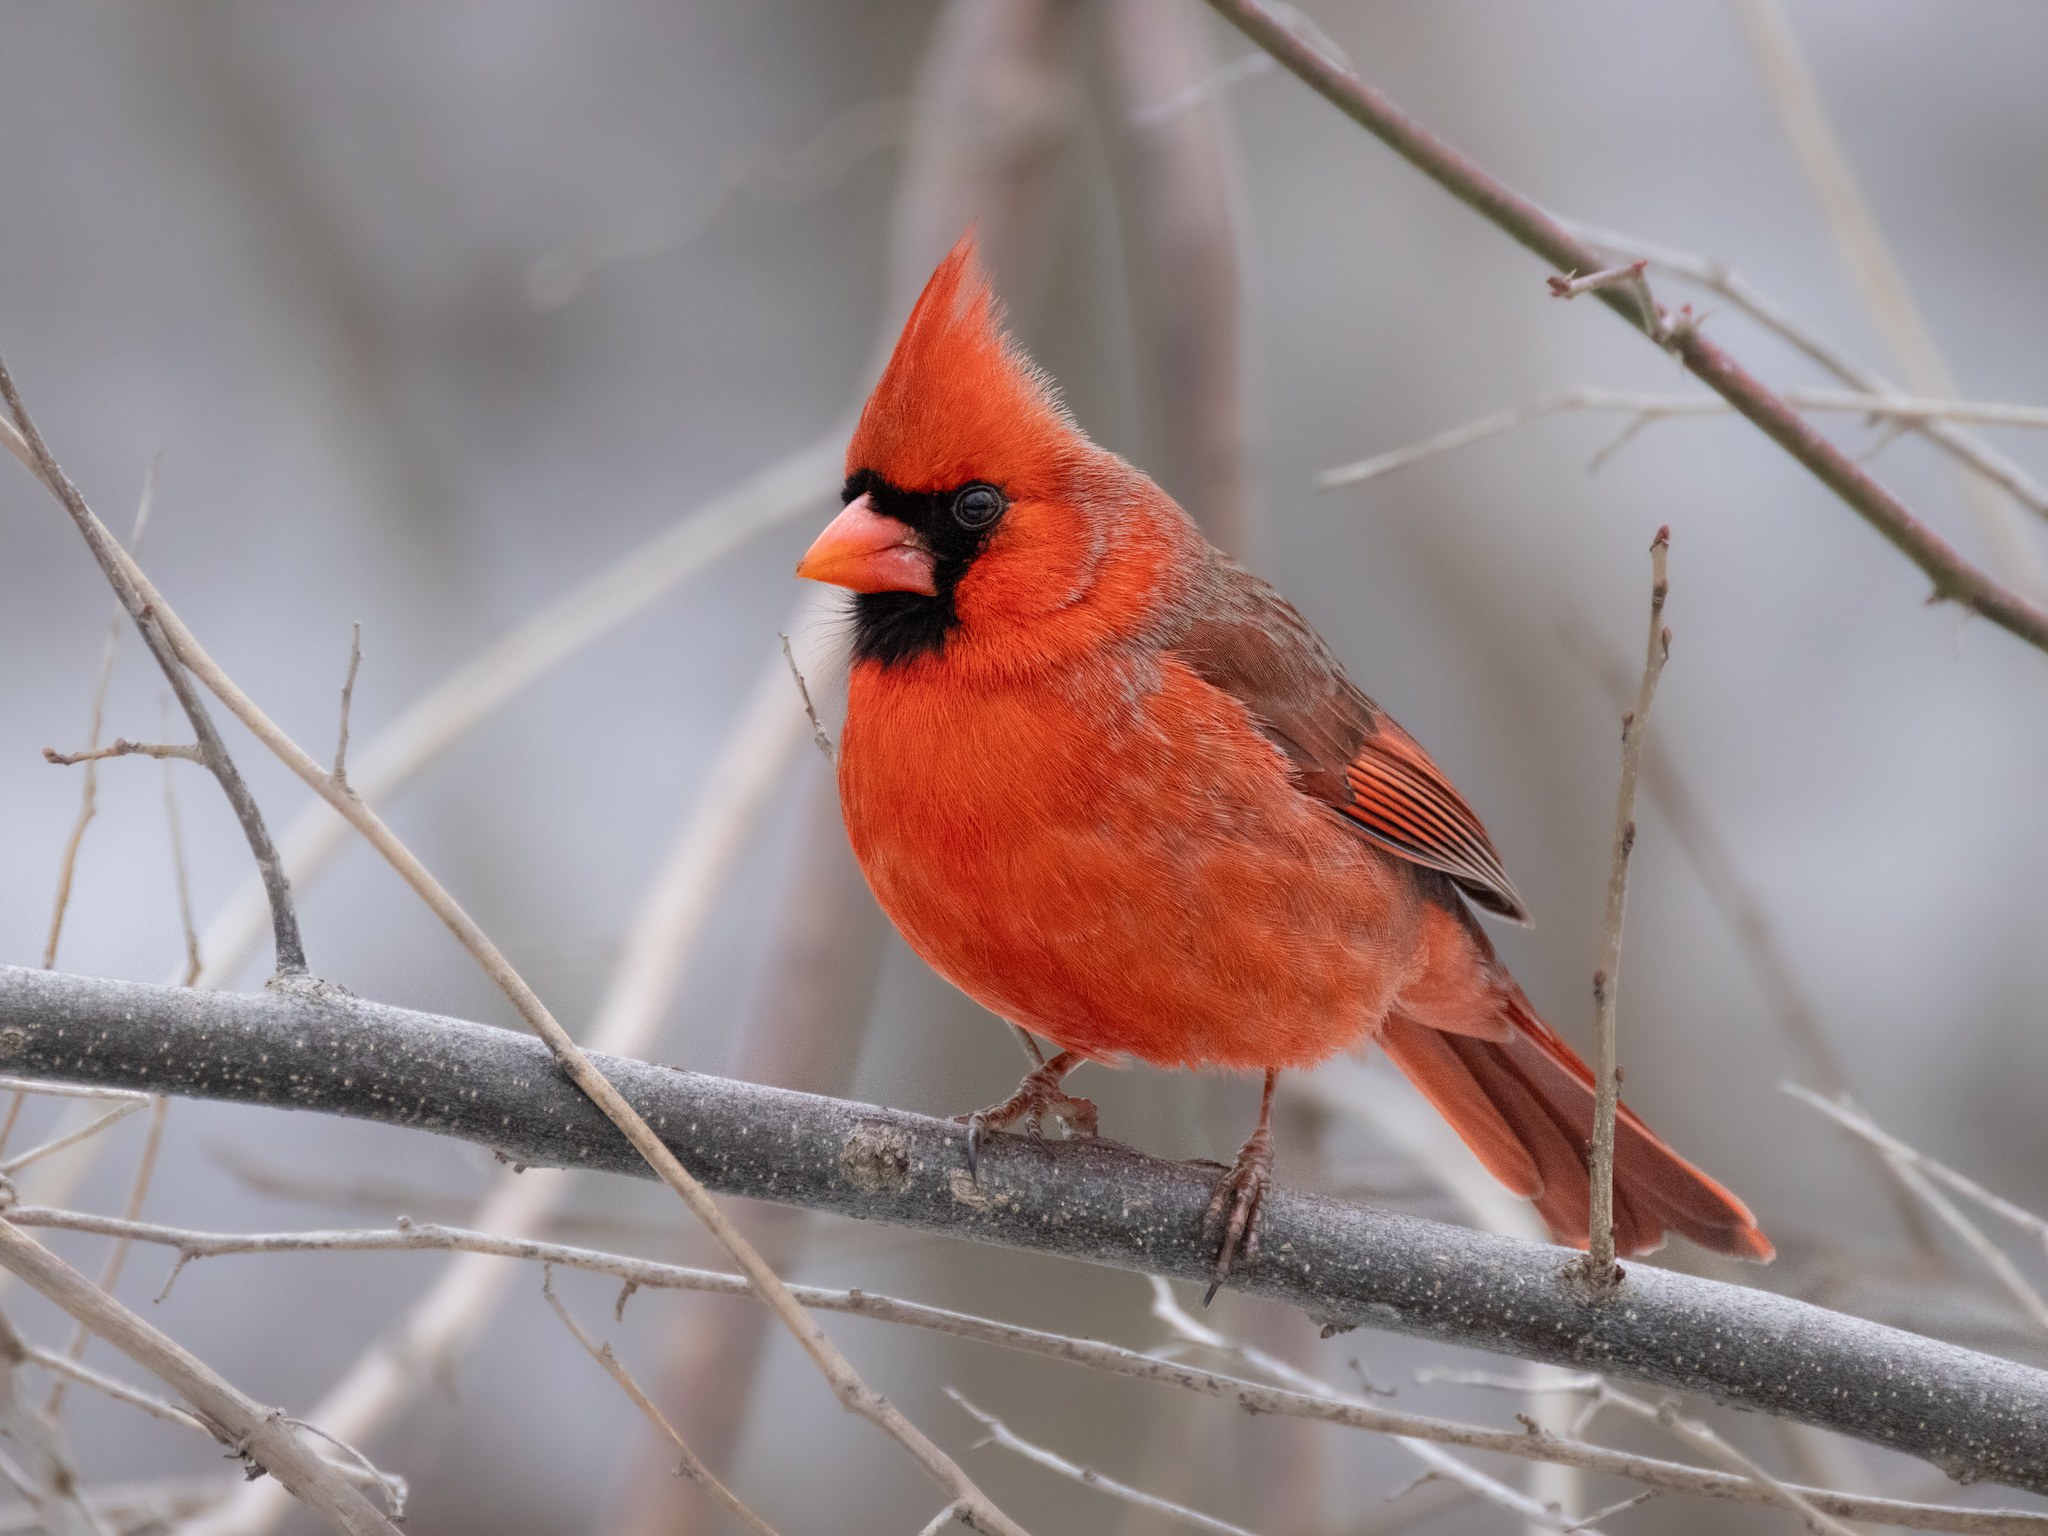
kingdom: Animalia
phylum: Chordata
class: Aves
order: Passeriformes
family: Cardinalidae
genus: Cardinalis
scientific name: Cardinalis cardinalis
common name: Northern cardinal
